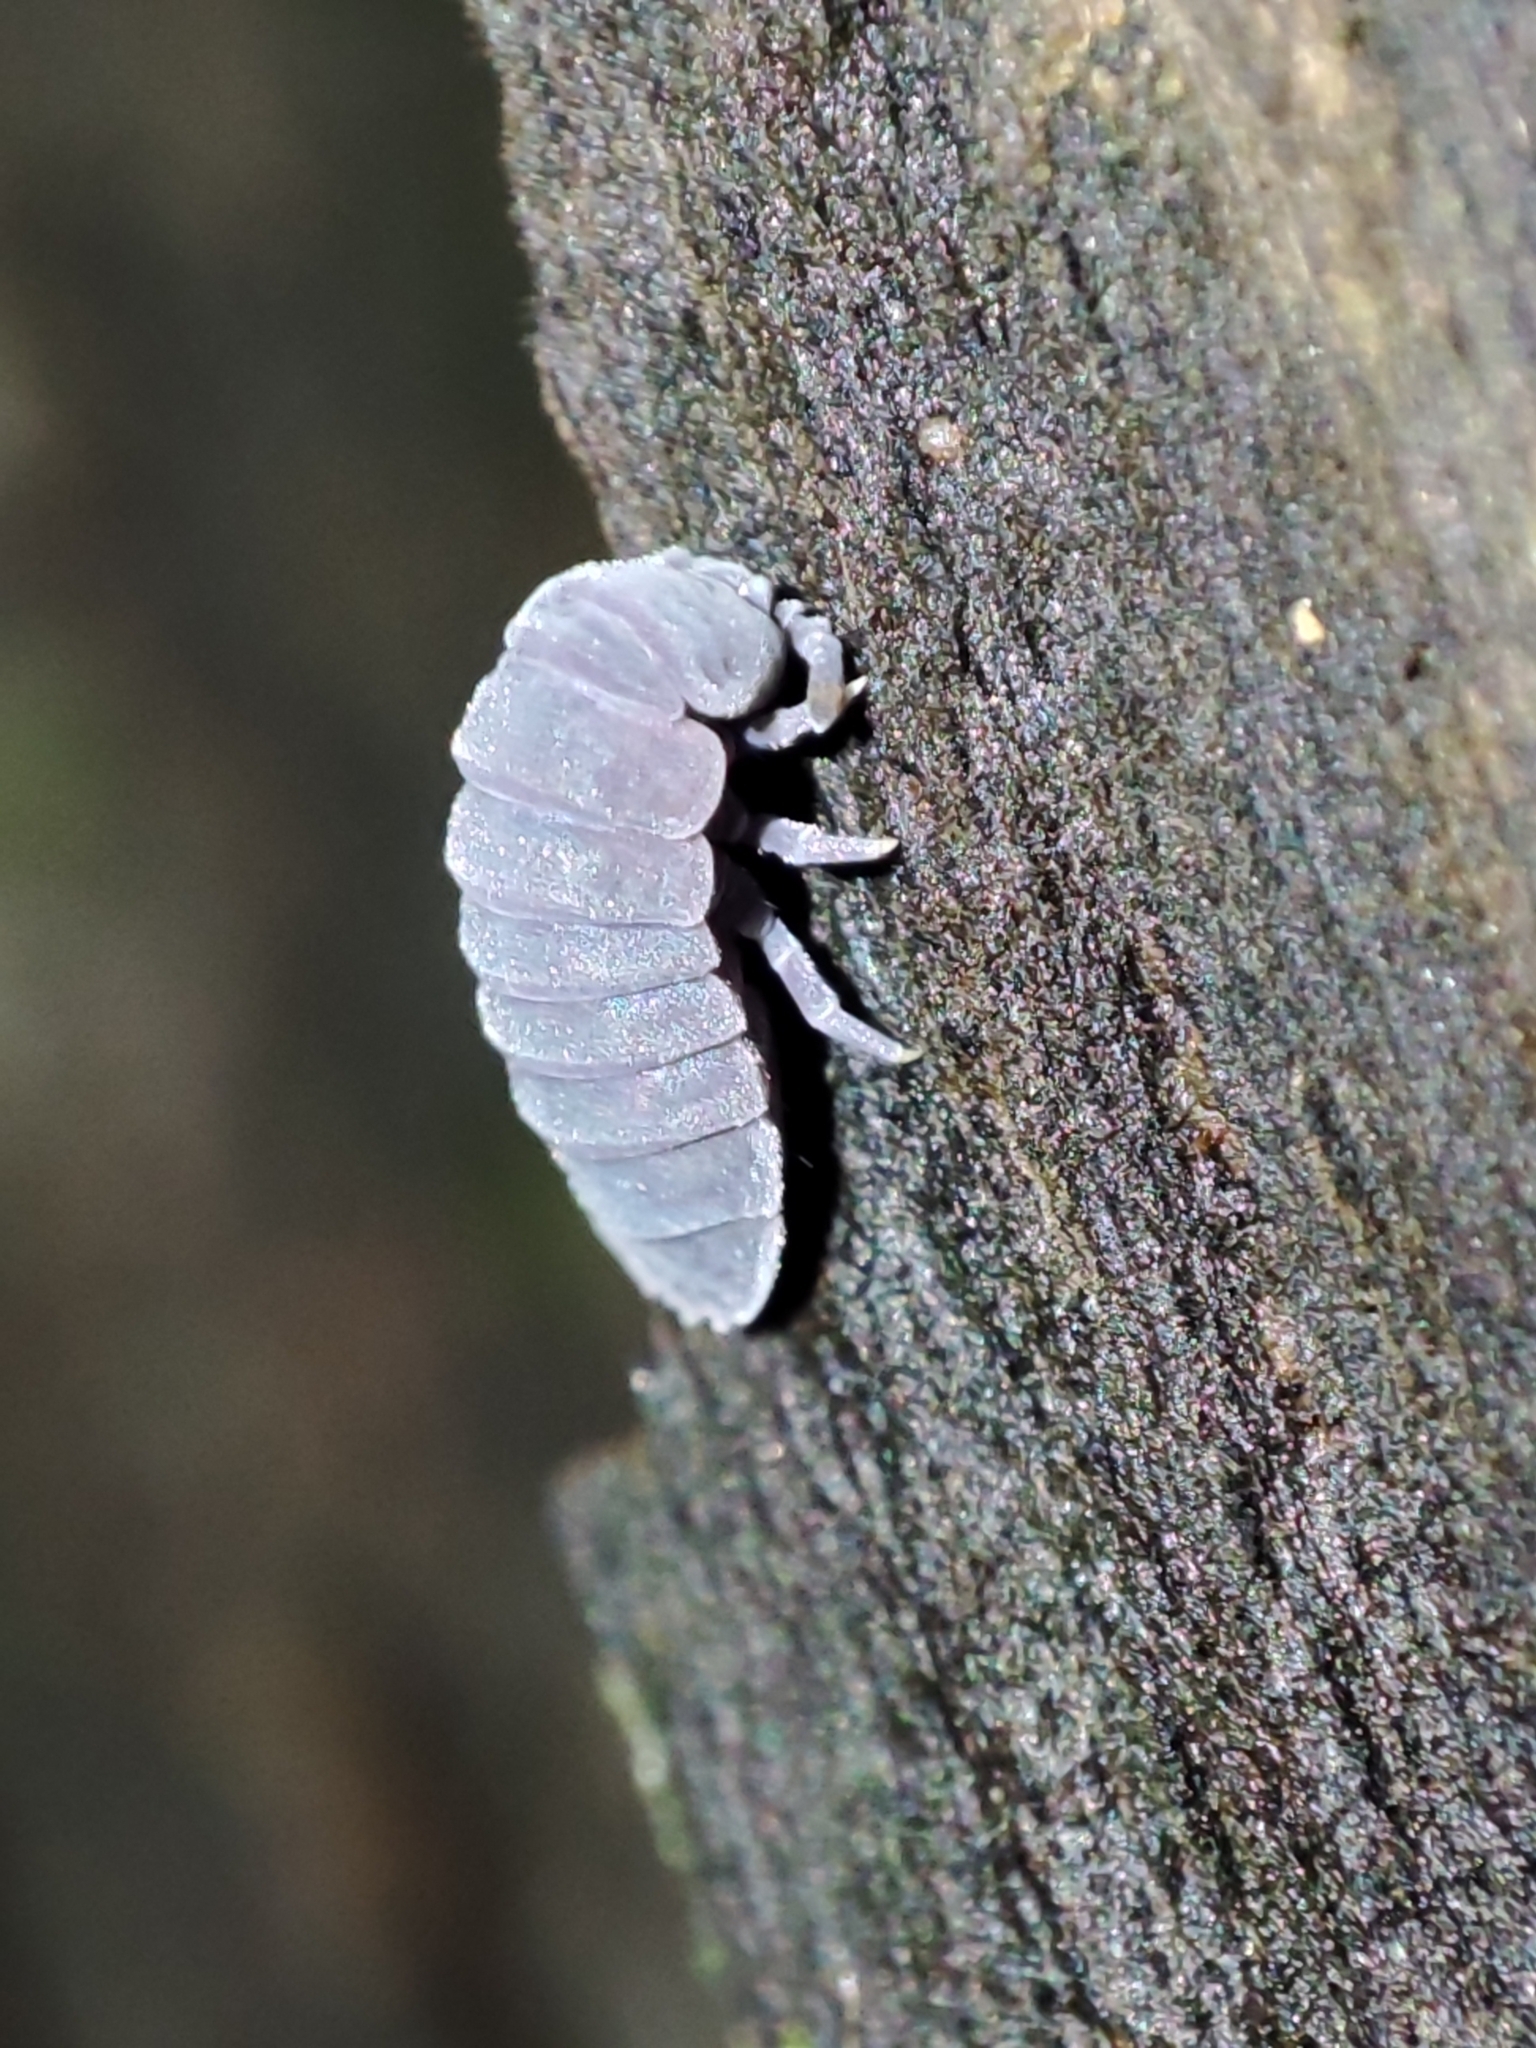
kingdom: Animalia
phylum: Arthropoda
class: Collembola
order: Poduromorpha
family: Onychiuridae
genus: Tetrodontophora
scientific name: Tetrodontophora bielanensis
